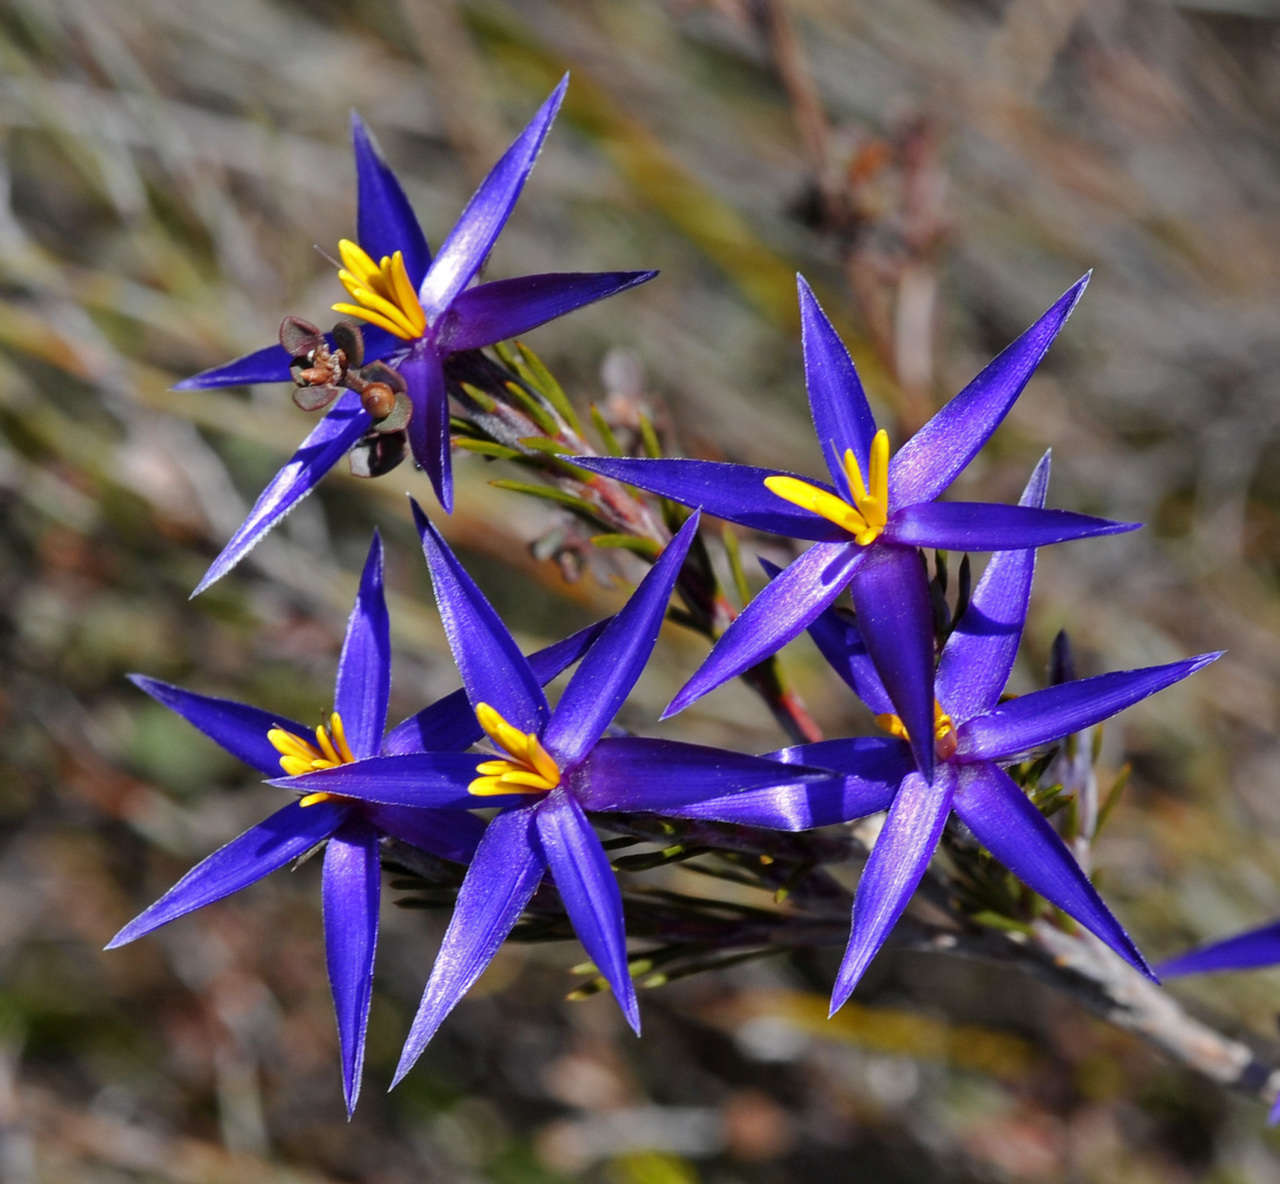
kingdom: Plantae
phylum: Tracheophyta
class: Liliopsida
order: Arecales
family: Dasypogonaceae
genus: Calectasia
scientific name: Calectasia intermedia
